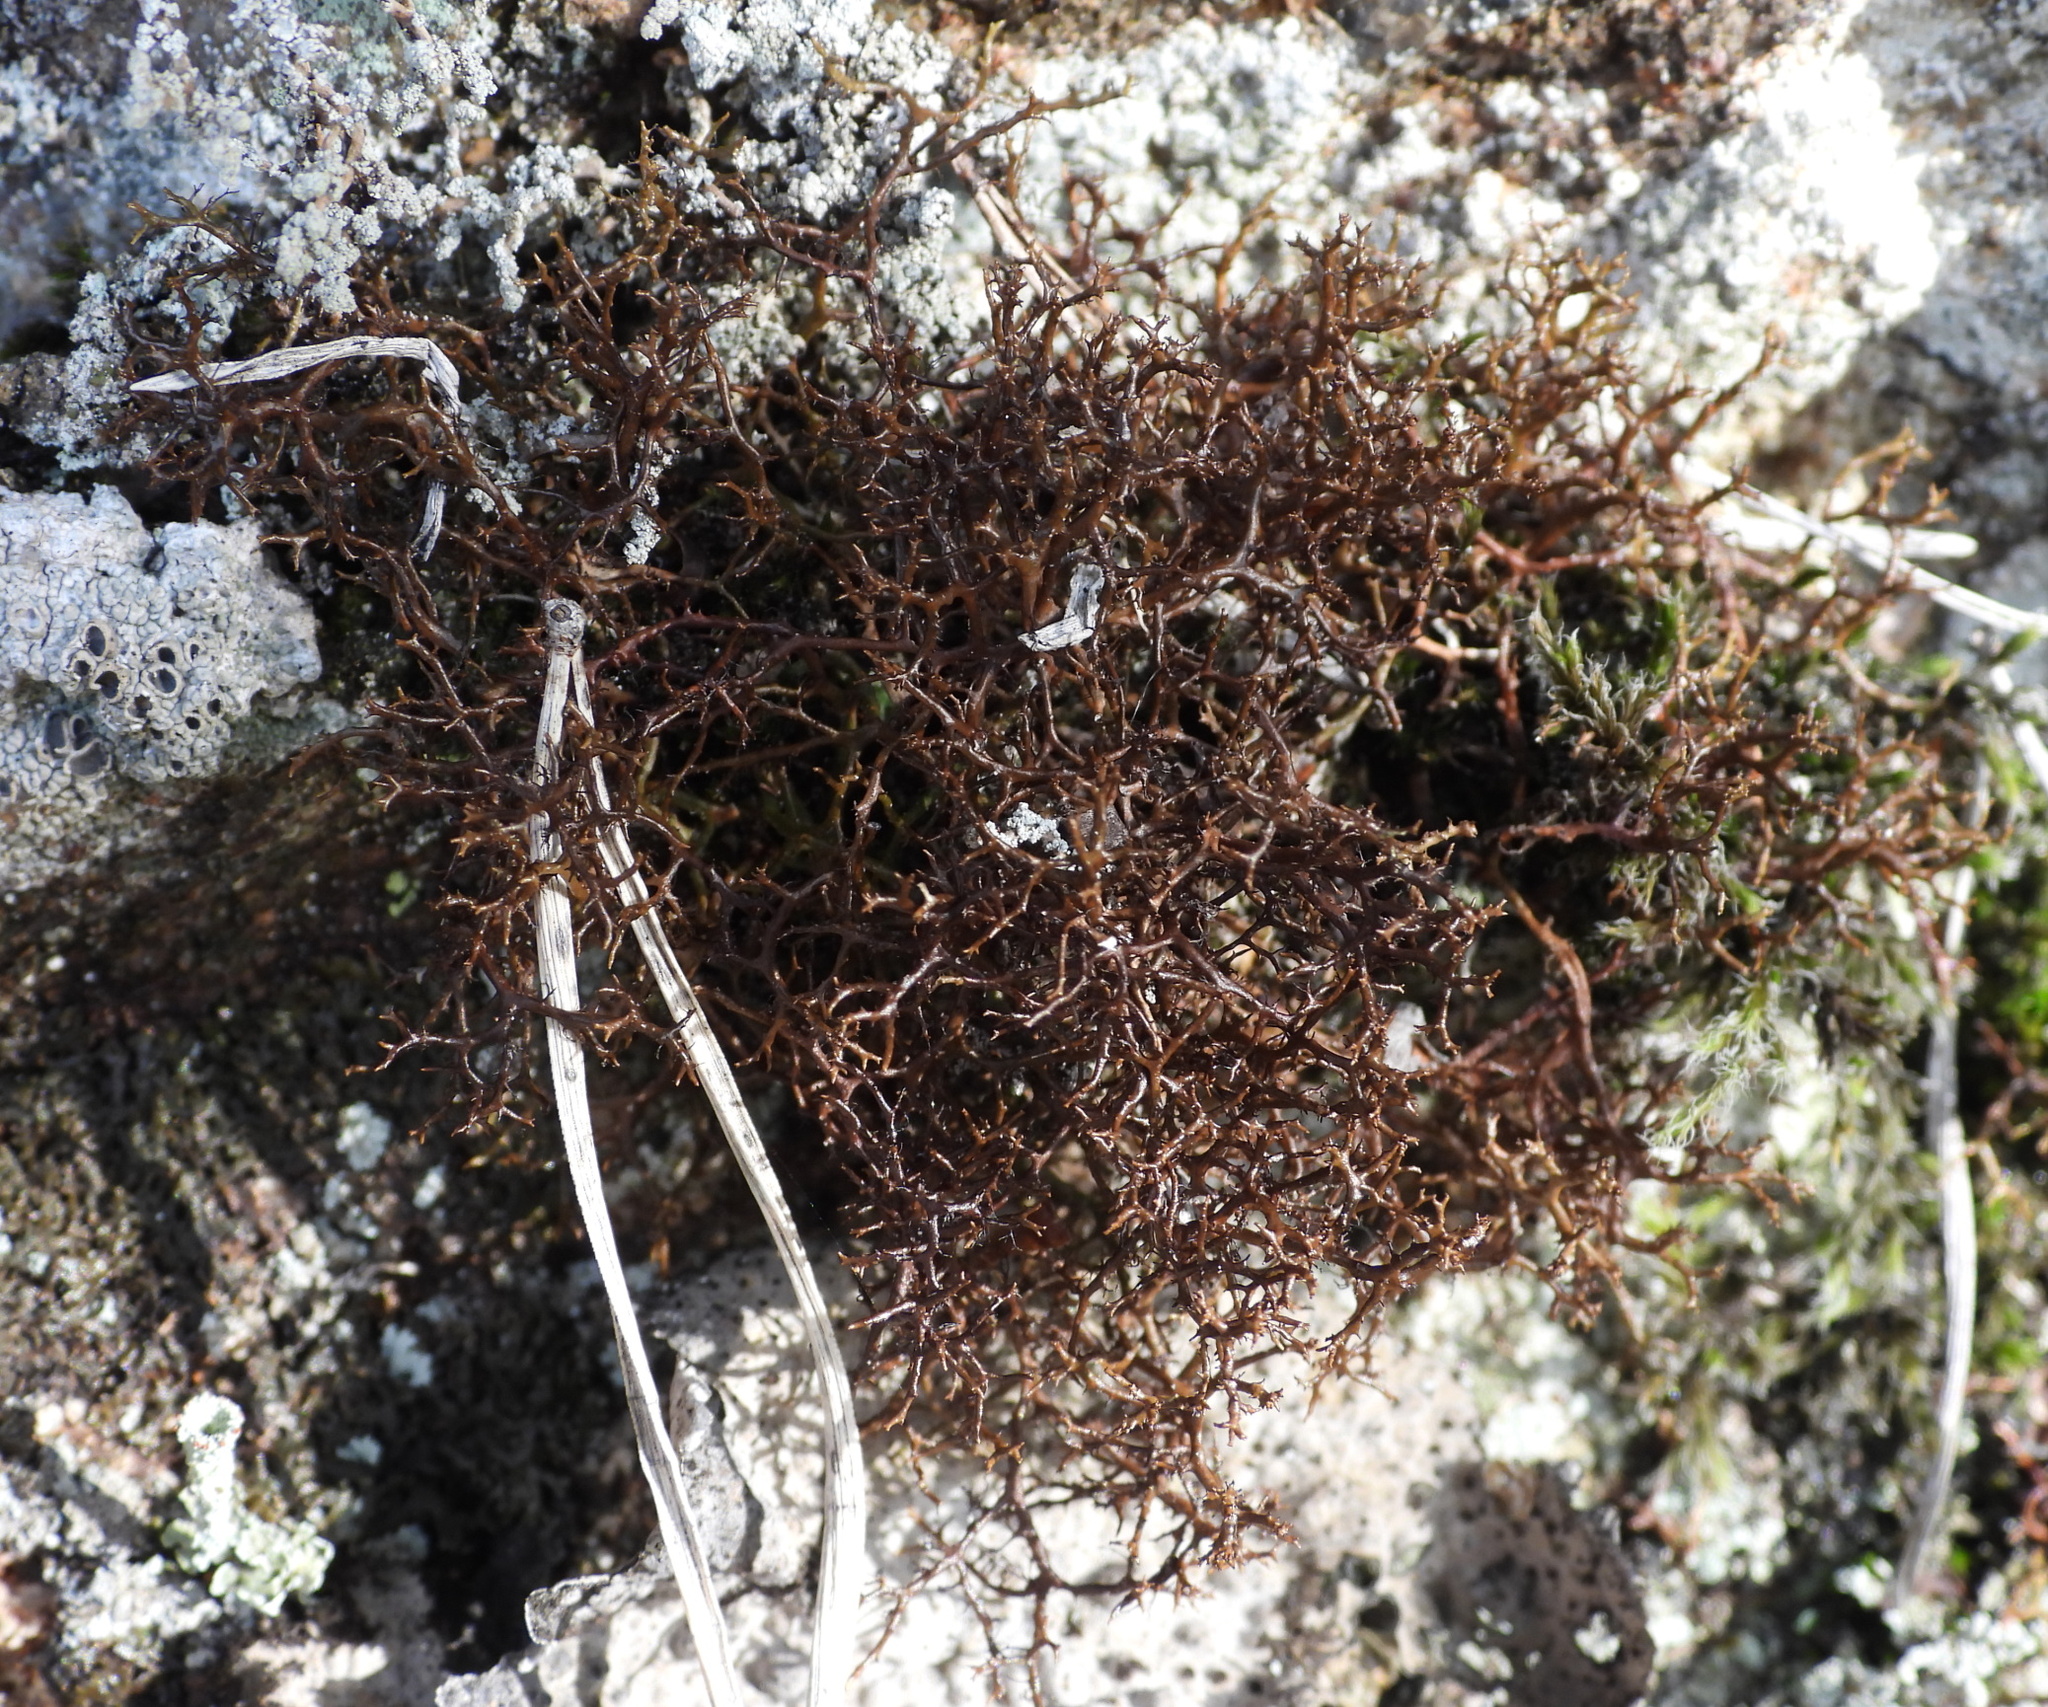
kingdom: Fungi
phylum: Ascomycota
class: Lecanoromycetes
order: Lecanorales
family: Parmeliaceae
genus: Cetraria
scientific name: Cetraria muricata
